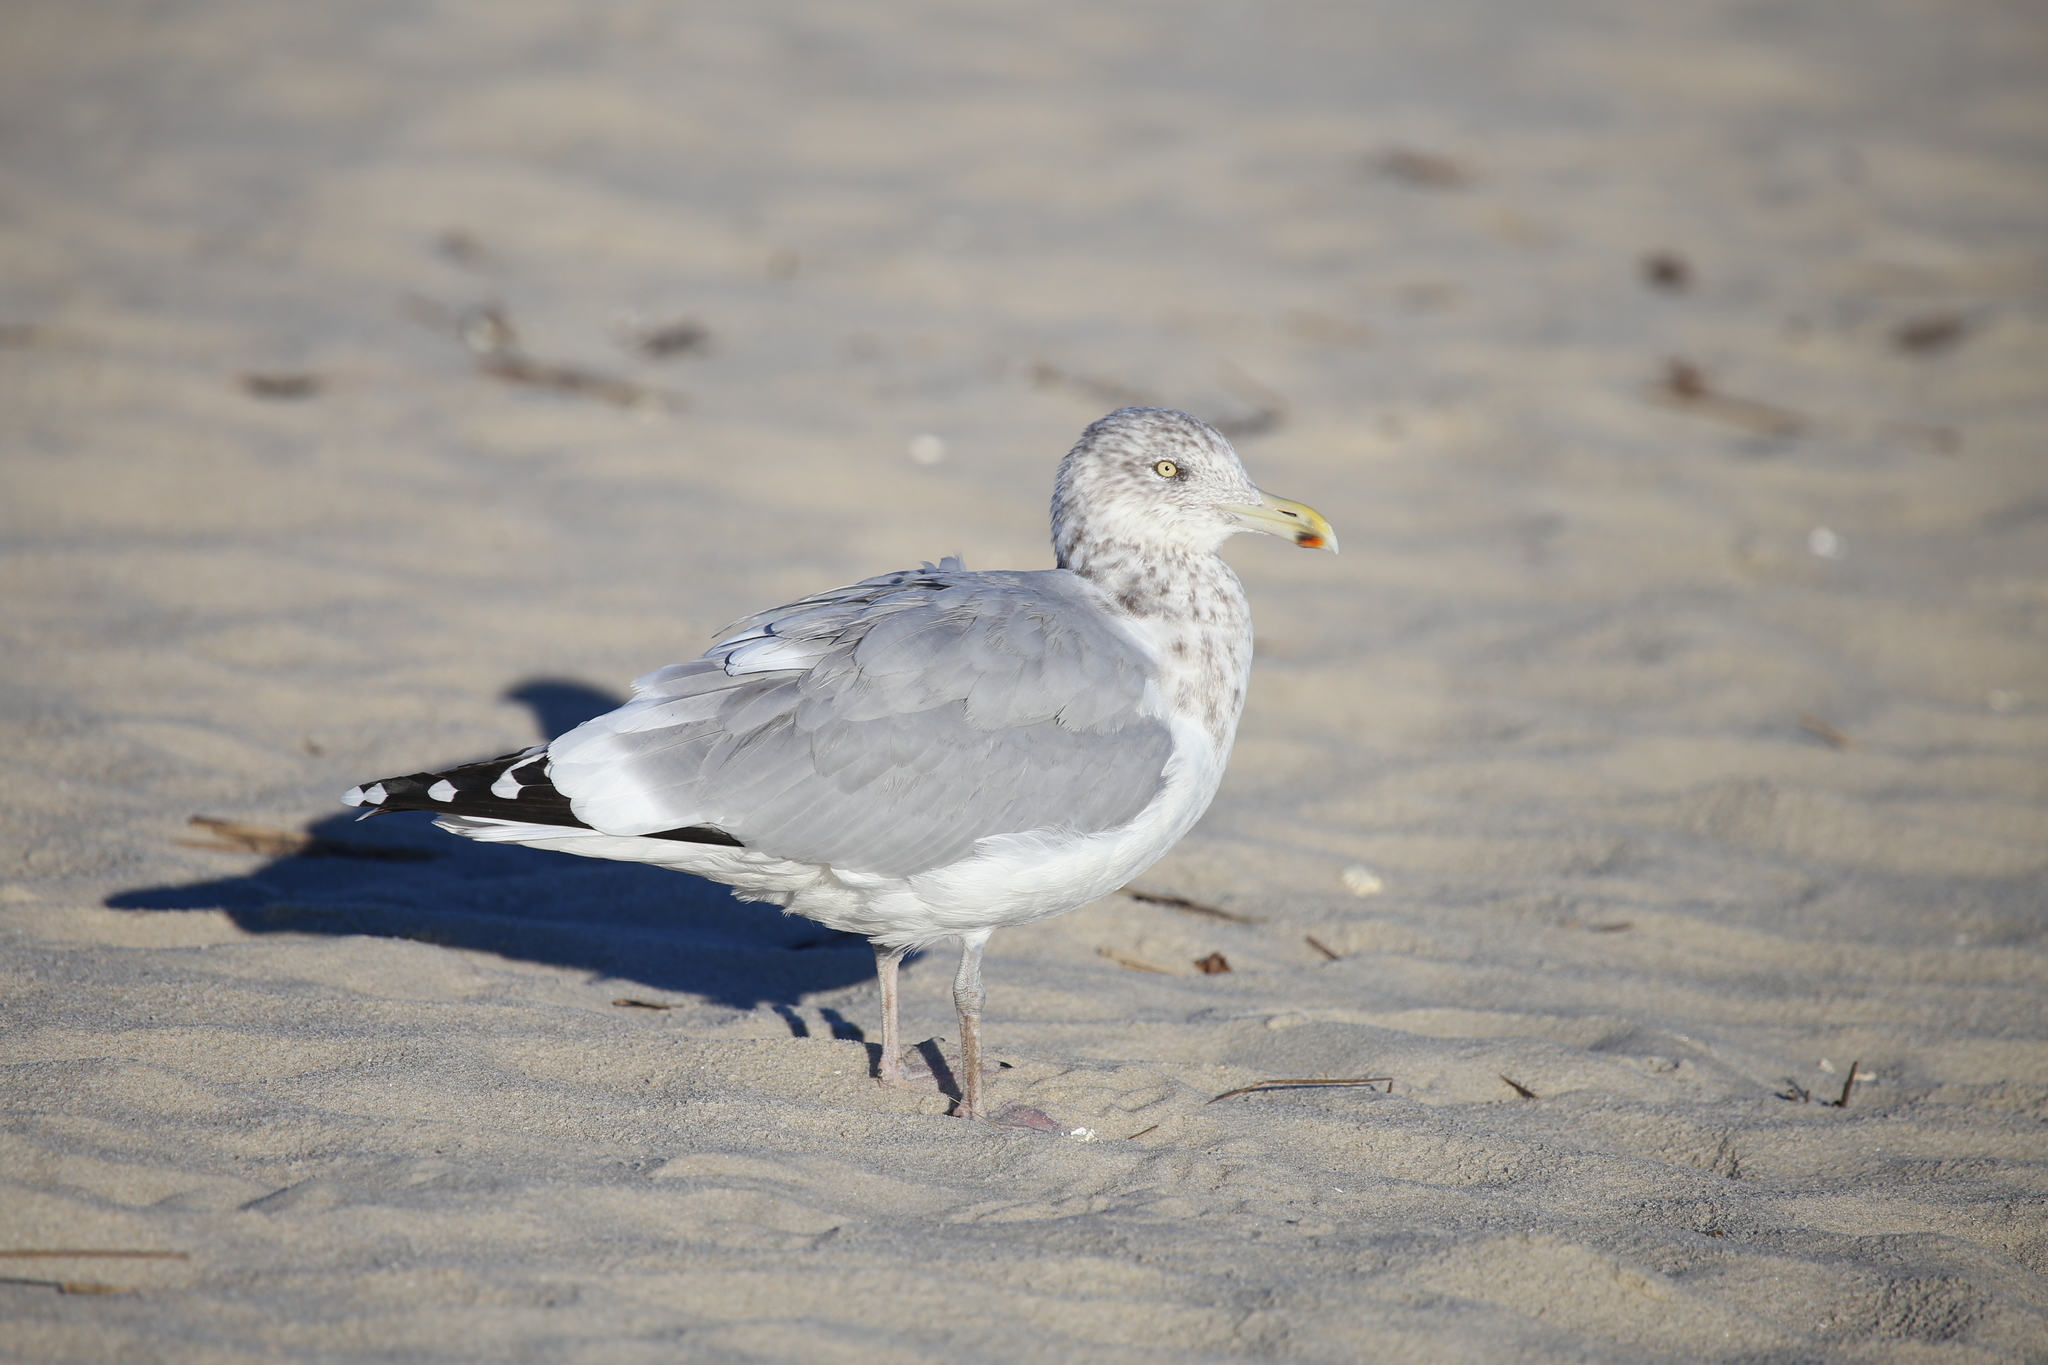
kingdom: Animalia
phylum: Chordata
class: Aves
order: Charadriiformes
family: Laridae
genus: Larus
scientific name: Larus argentatus
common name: Herring gull
